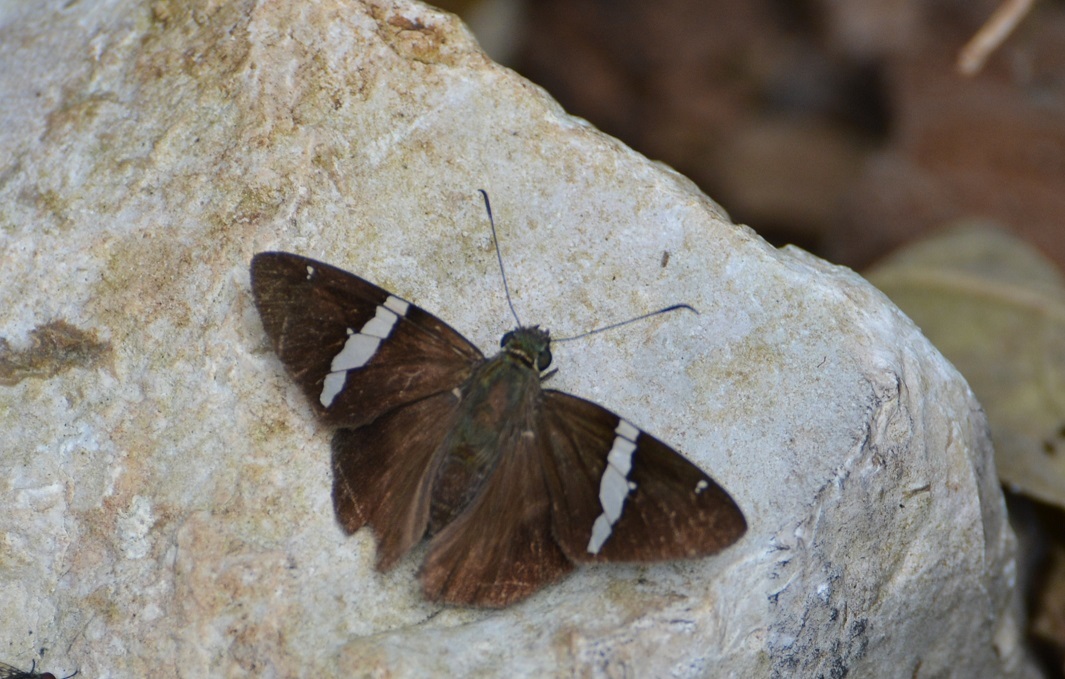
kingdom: Animalia
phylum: Arthropoda
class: Insecta
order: Lepidoptera
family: Hesperiidae
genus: Autochton
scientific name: Autochton neis
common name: Broad-banded skipper
